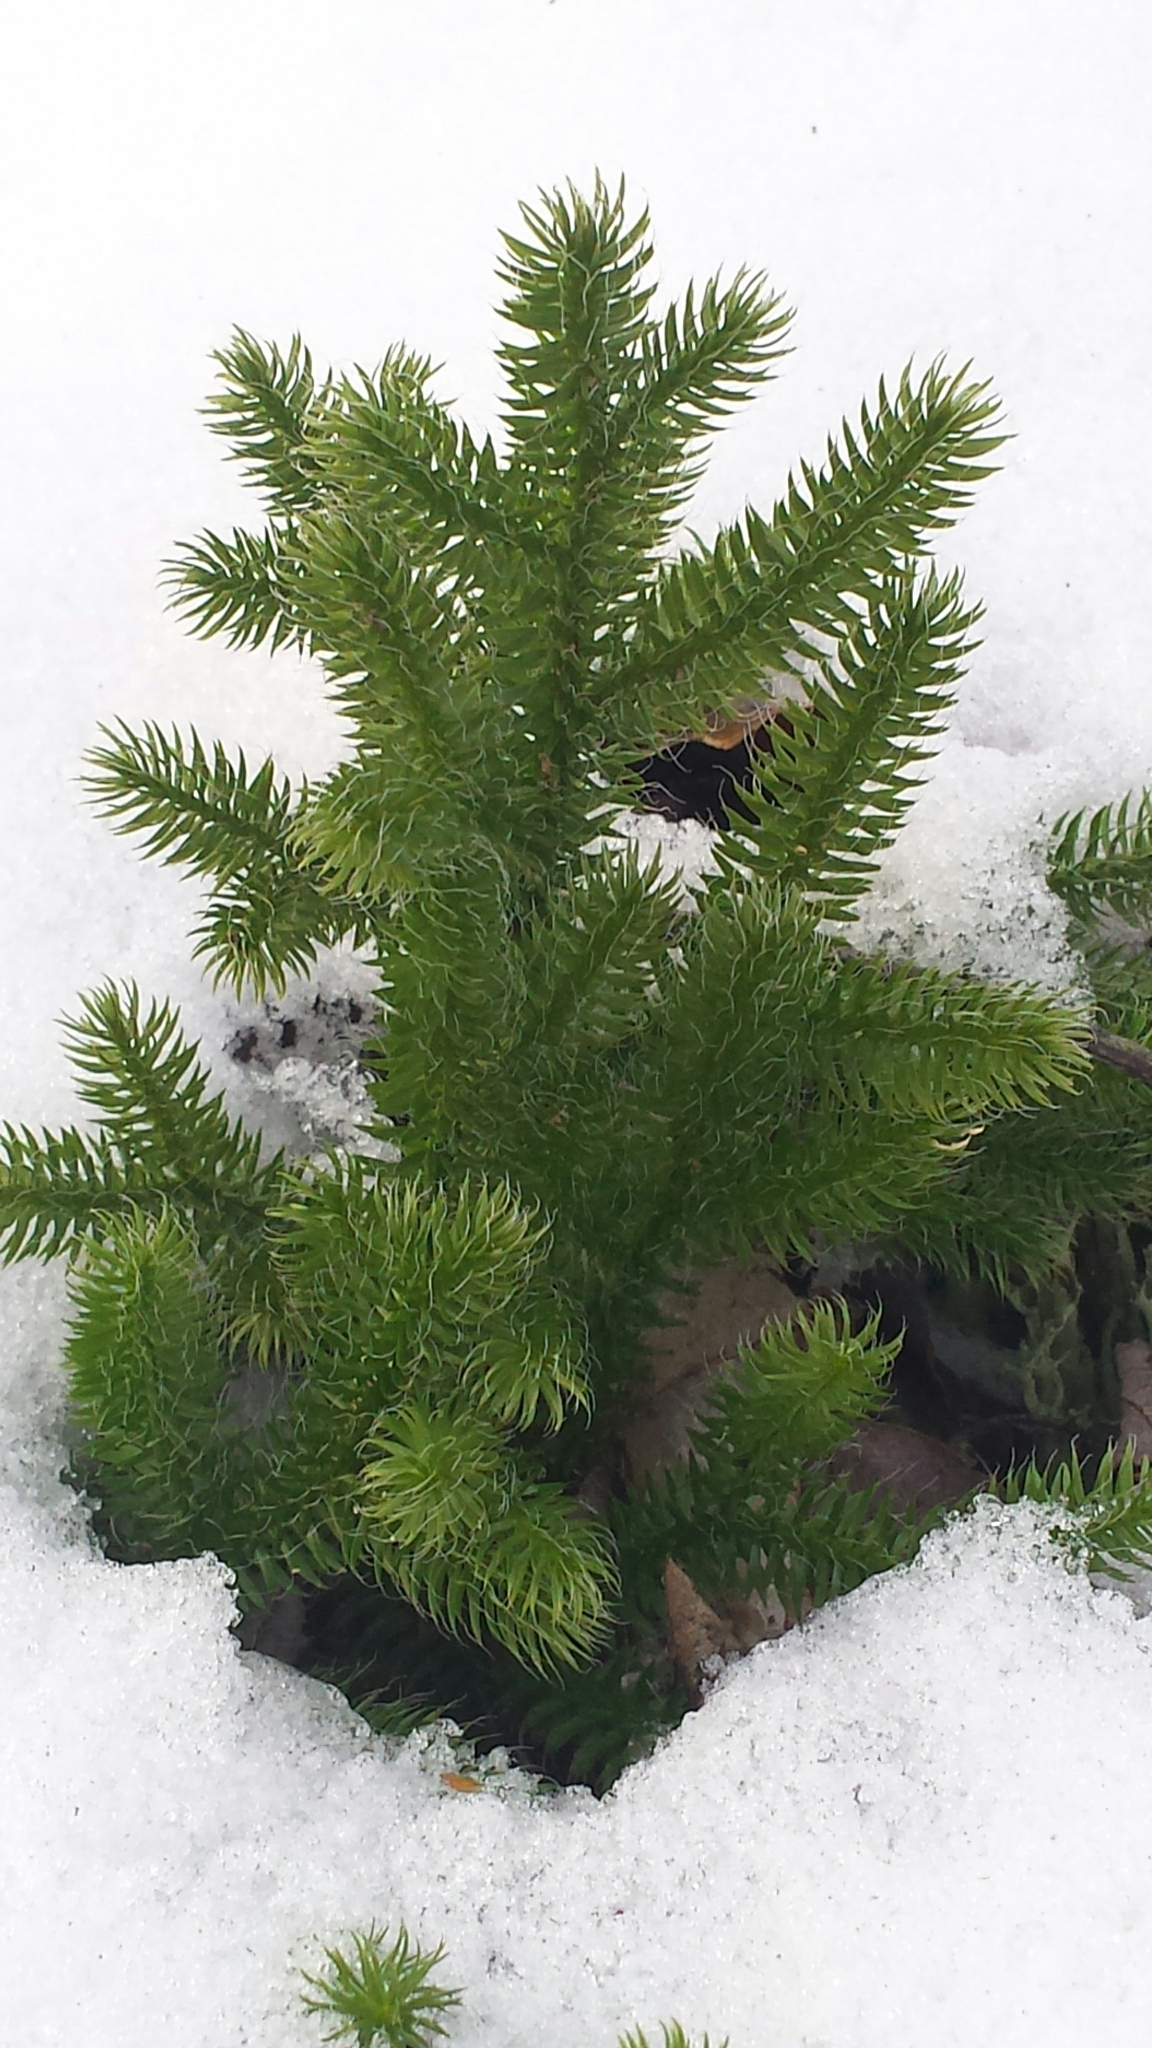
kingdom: Plantae
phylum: Tracheophyta
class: Lycopodiopsida
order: Lycopodiales
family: Lycopodiaceae
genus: Lycopodium
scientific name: Lycopodium clavatum
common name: Stag's-horn clubmoss
